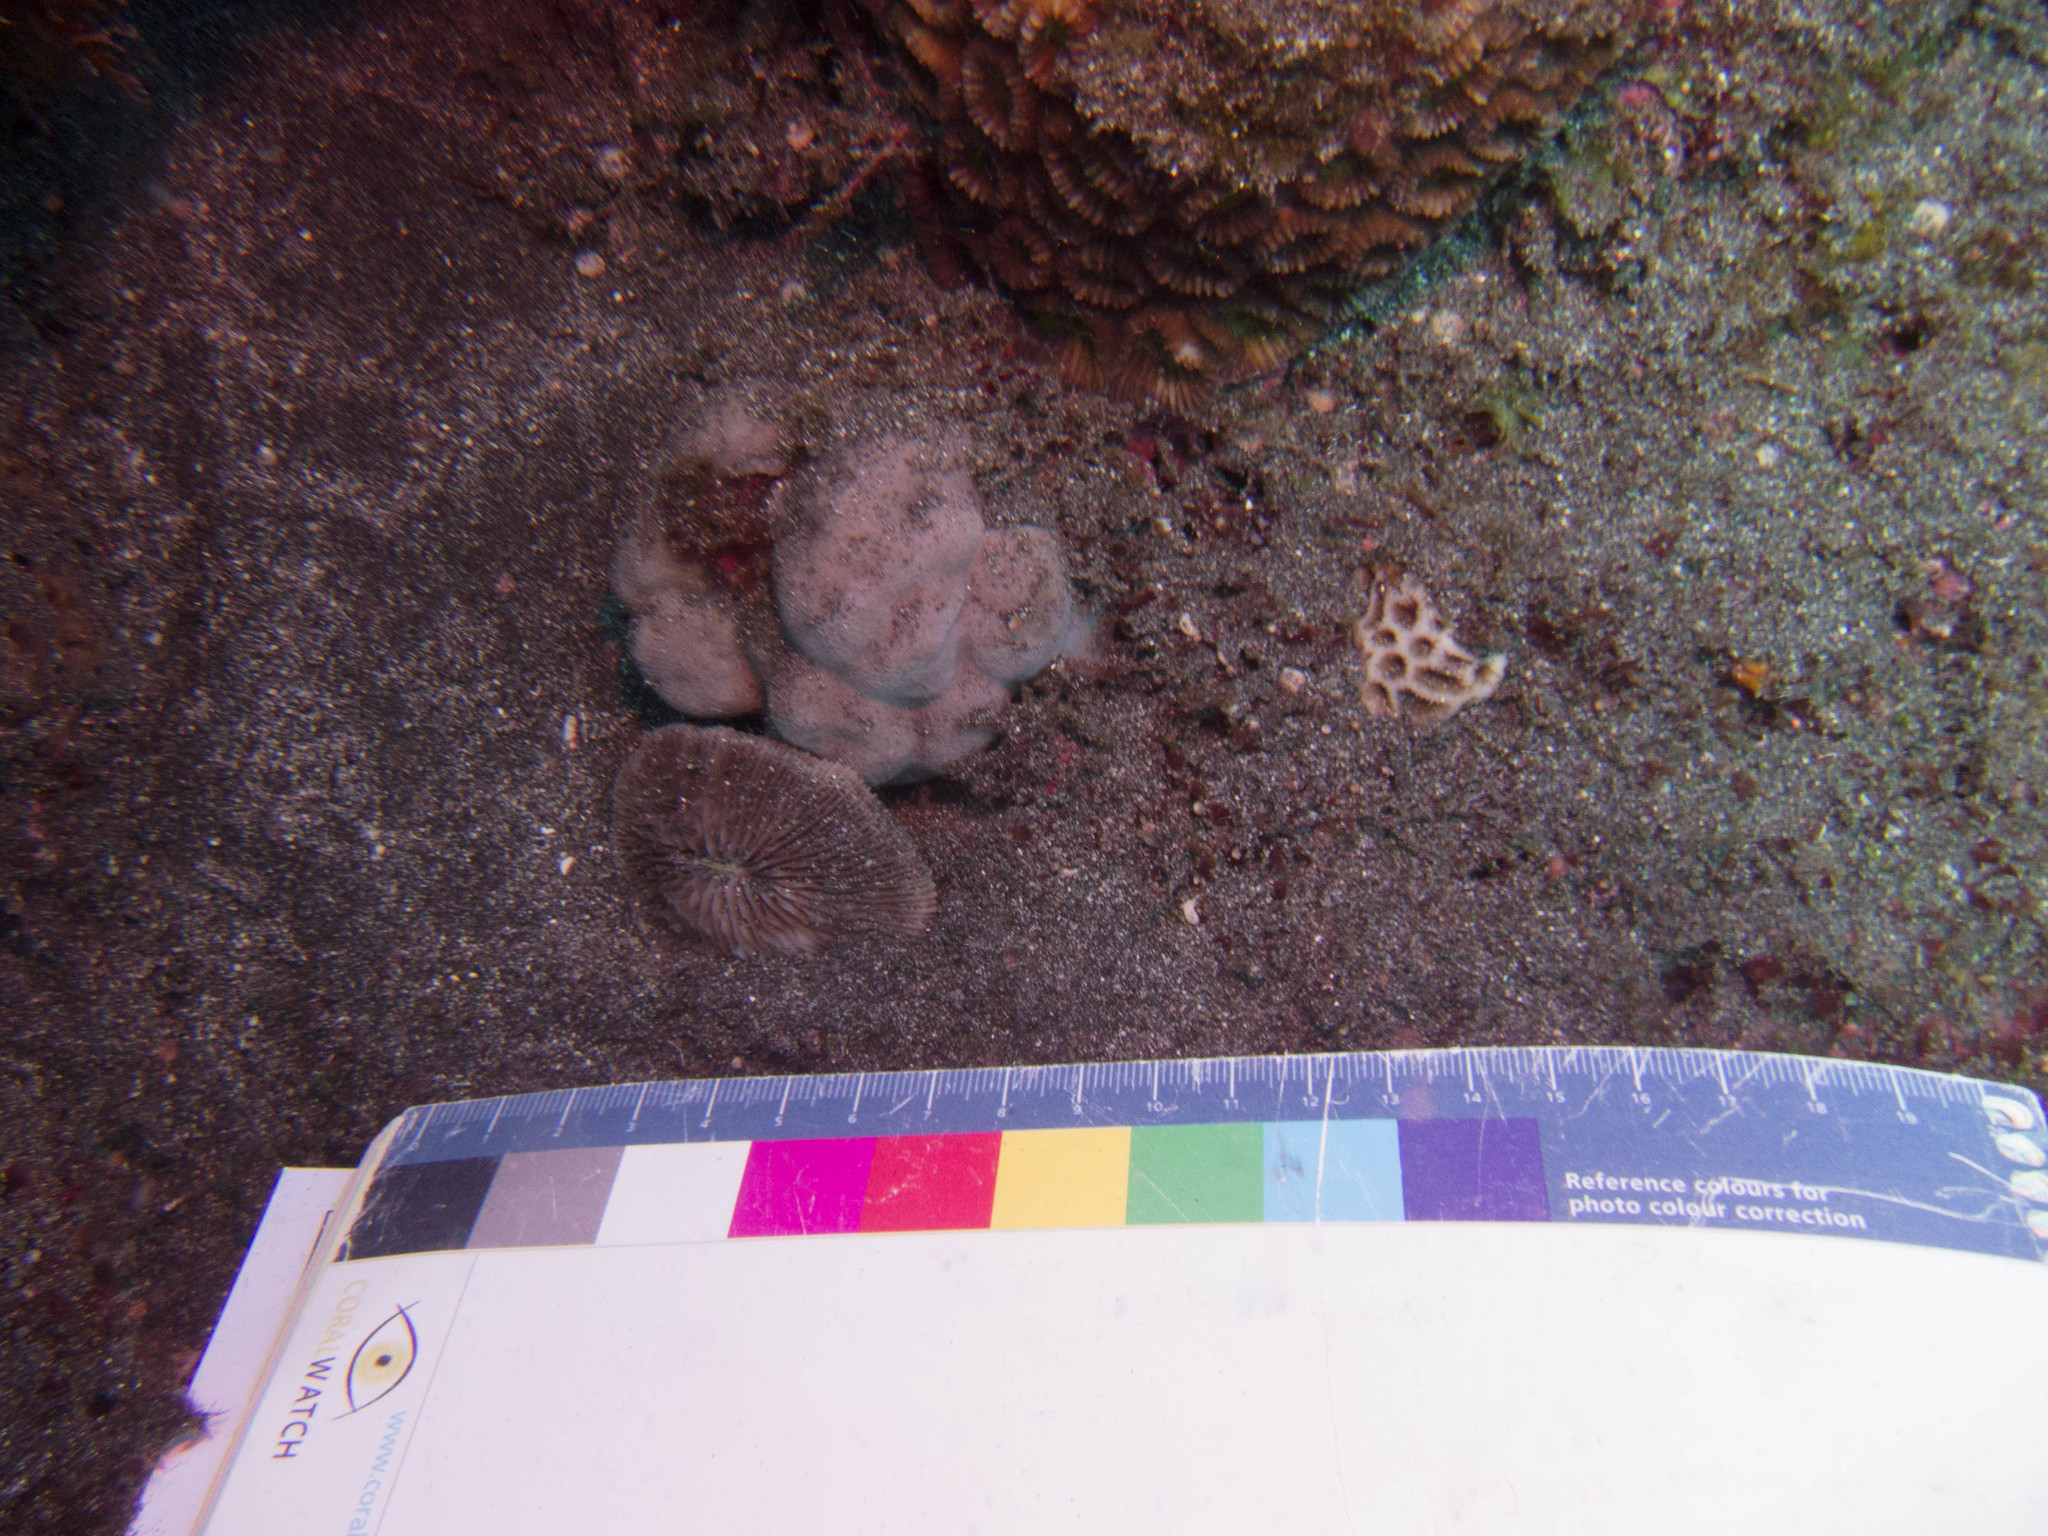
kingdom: Animalia
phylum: Cnidaria
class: Anthozoa
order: Scleractinia
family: Fungiidae
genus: Lobactis
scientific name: Lobactis scutaria
